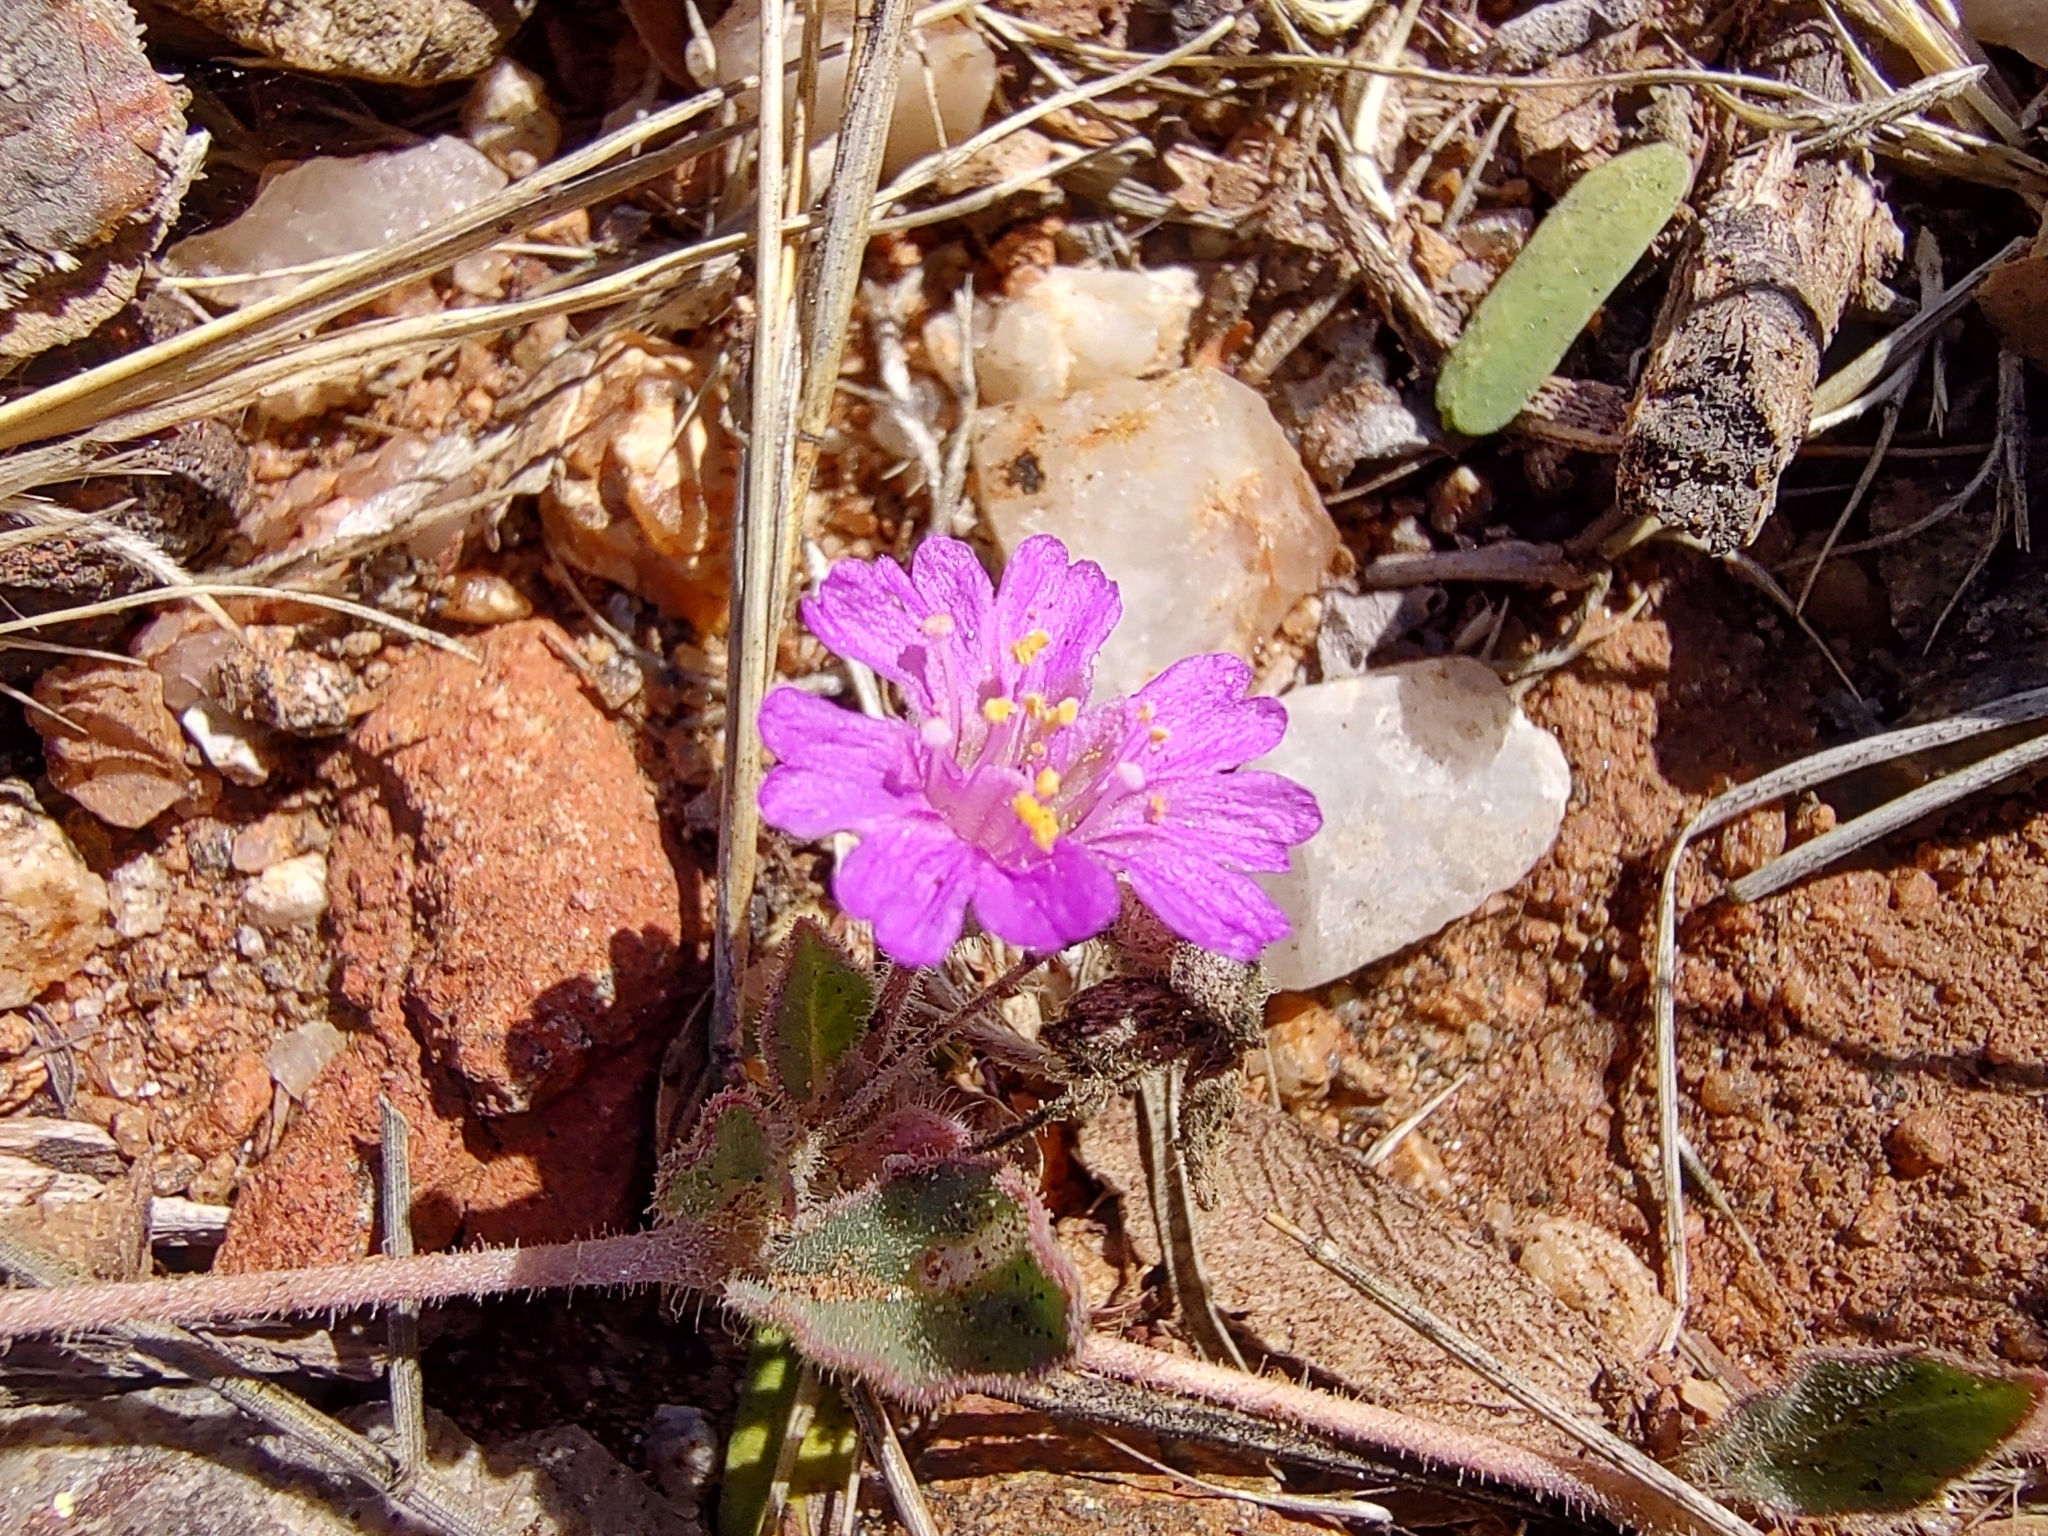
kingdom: Plantae
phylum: Tracheophyta
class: Magnoliopsida
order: Caryophyllales
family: Nyctaginaceae
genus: Allionia
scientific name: Allionia incarnata
